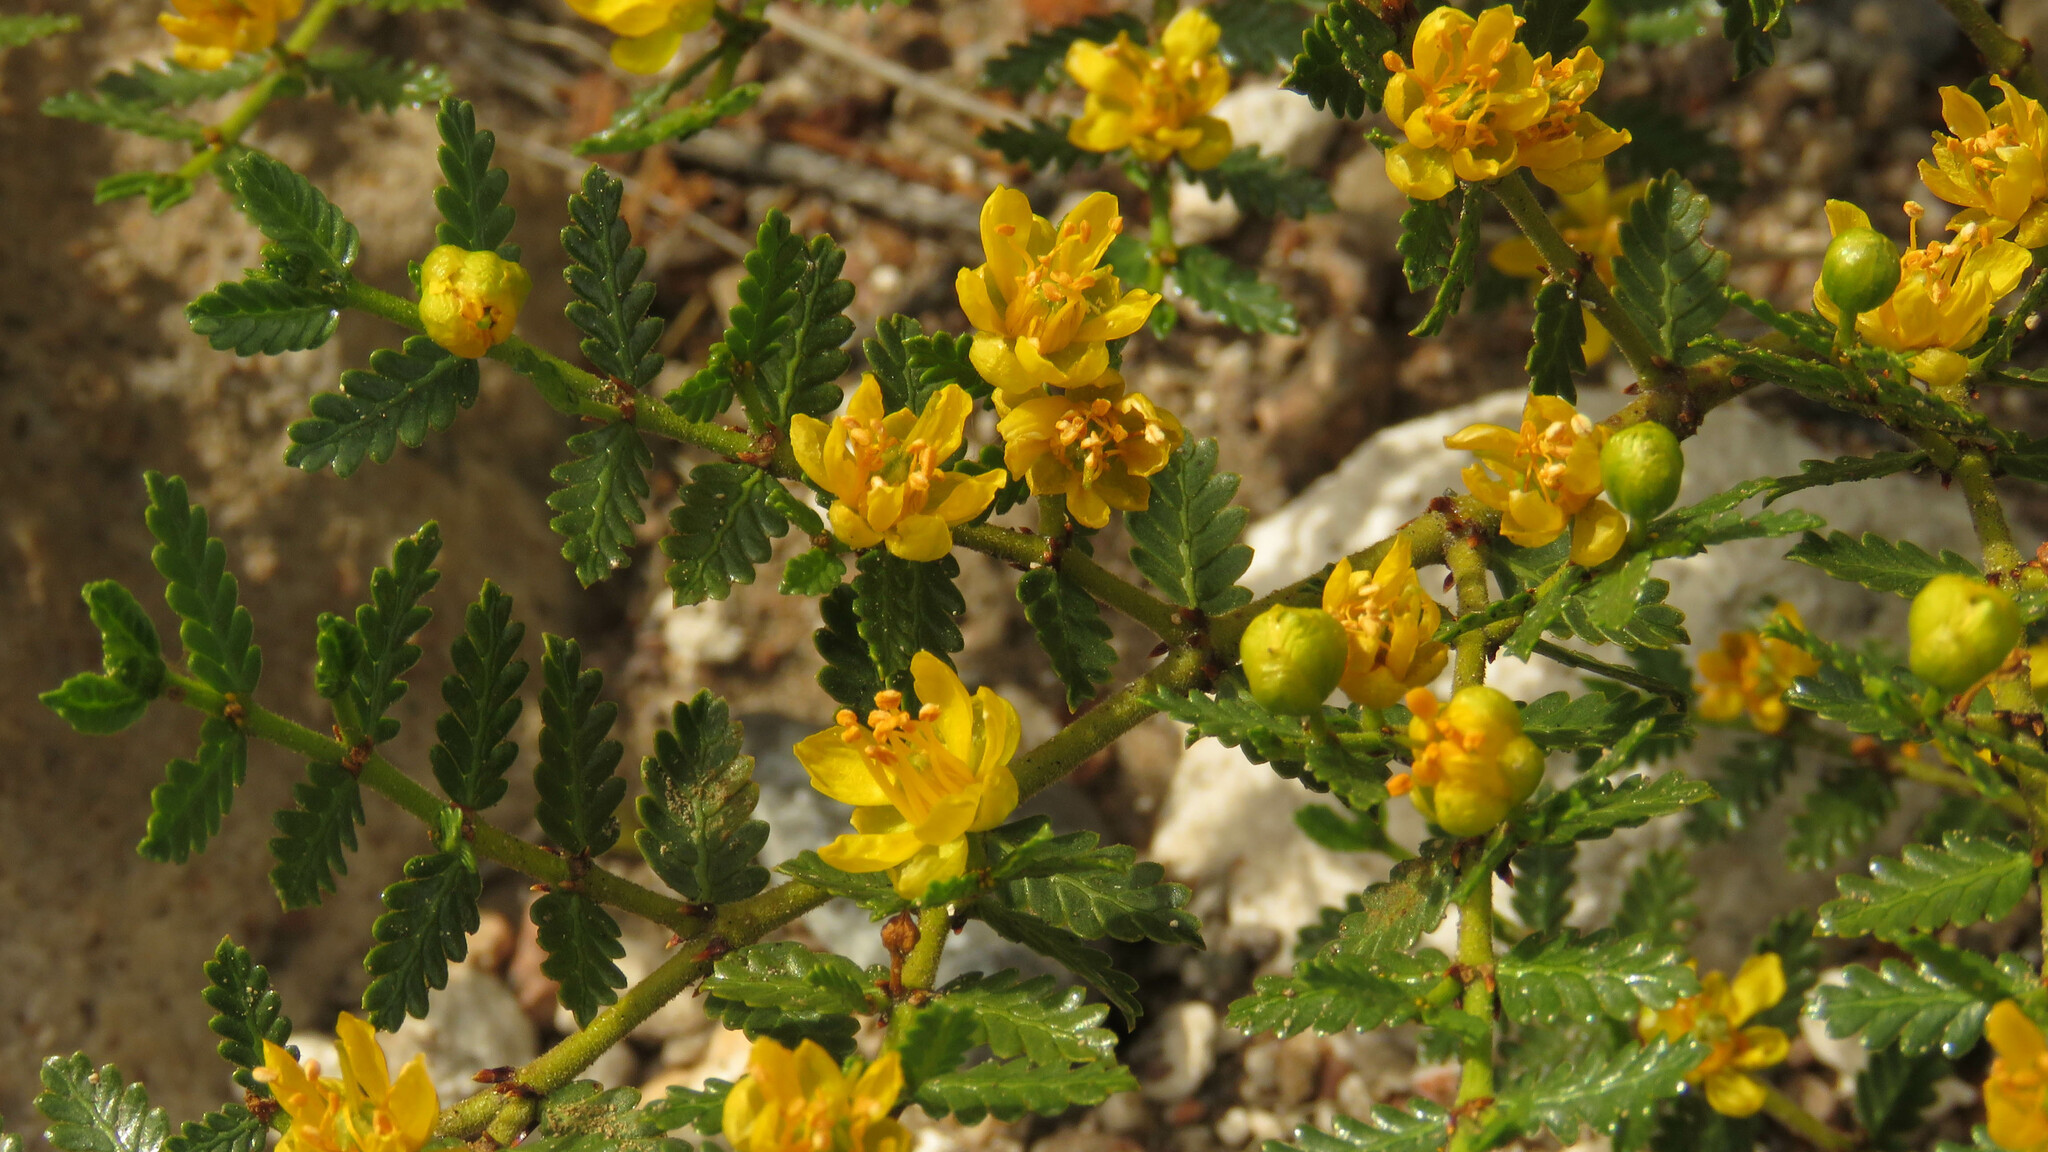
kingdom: Plantae
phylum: Tracheophyta
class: Magnoliopsida
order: Zygophyllales
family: Zygophyllaceae
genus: Larrea
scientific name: Larrea nitida
